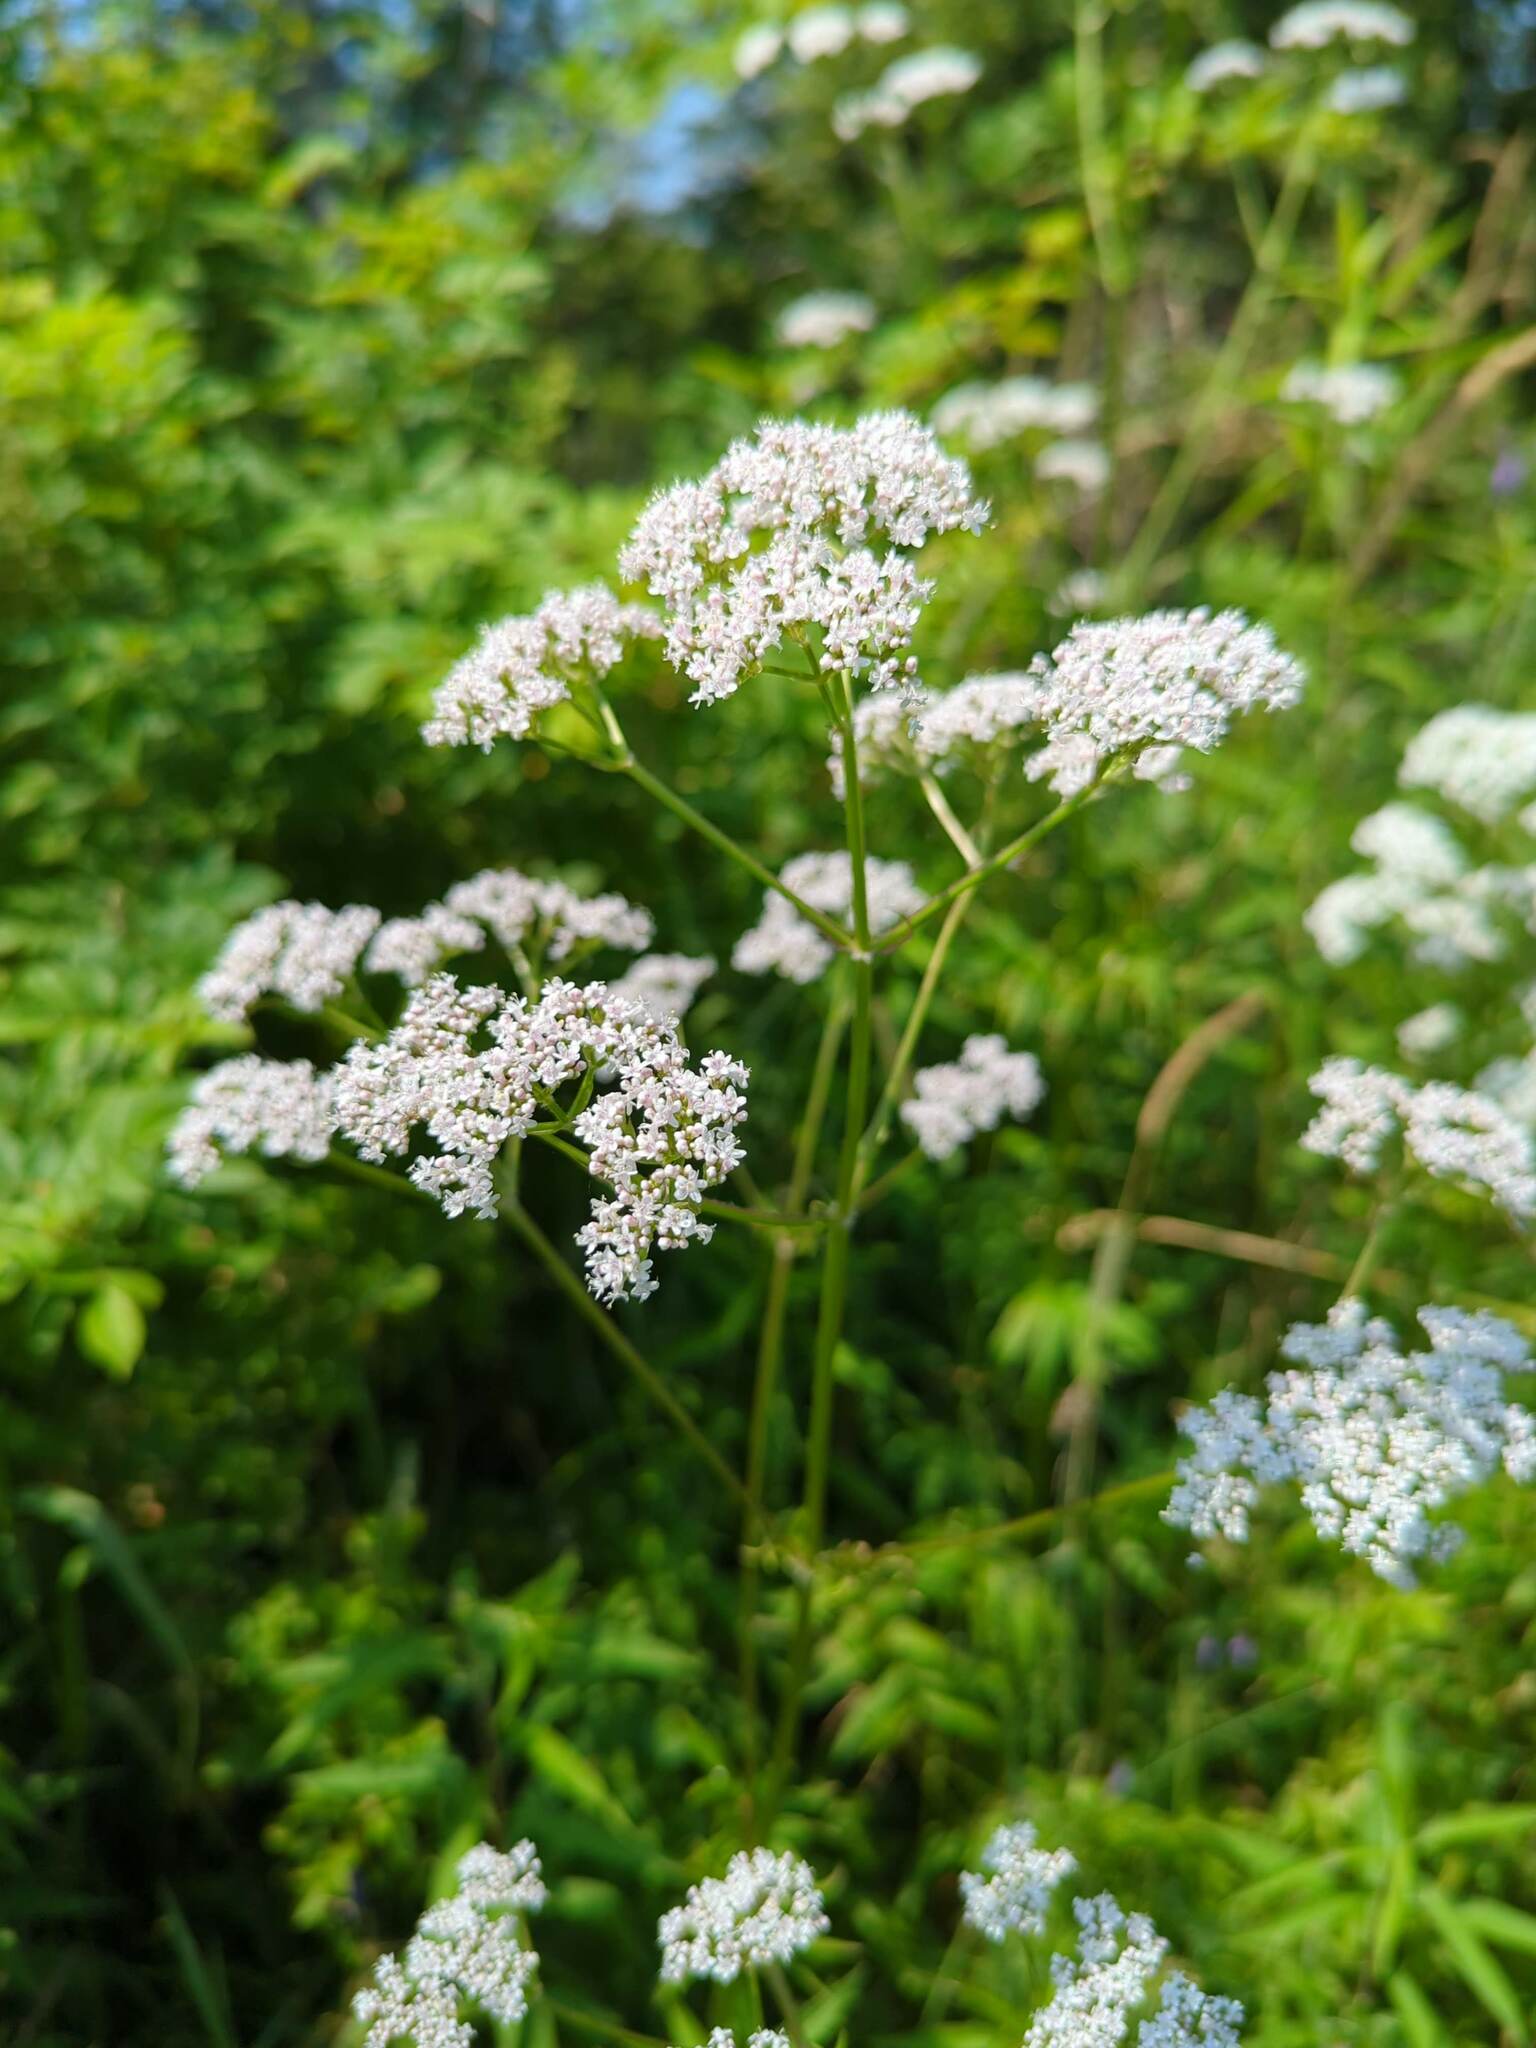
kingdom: Plantae
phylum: Tracheophyta
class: Magnoliopsida
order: Dipsacales
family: Caprifoliaceae
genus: Valeriana
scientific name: Valeriana officinalis
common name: Common valerian
